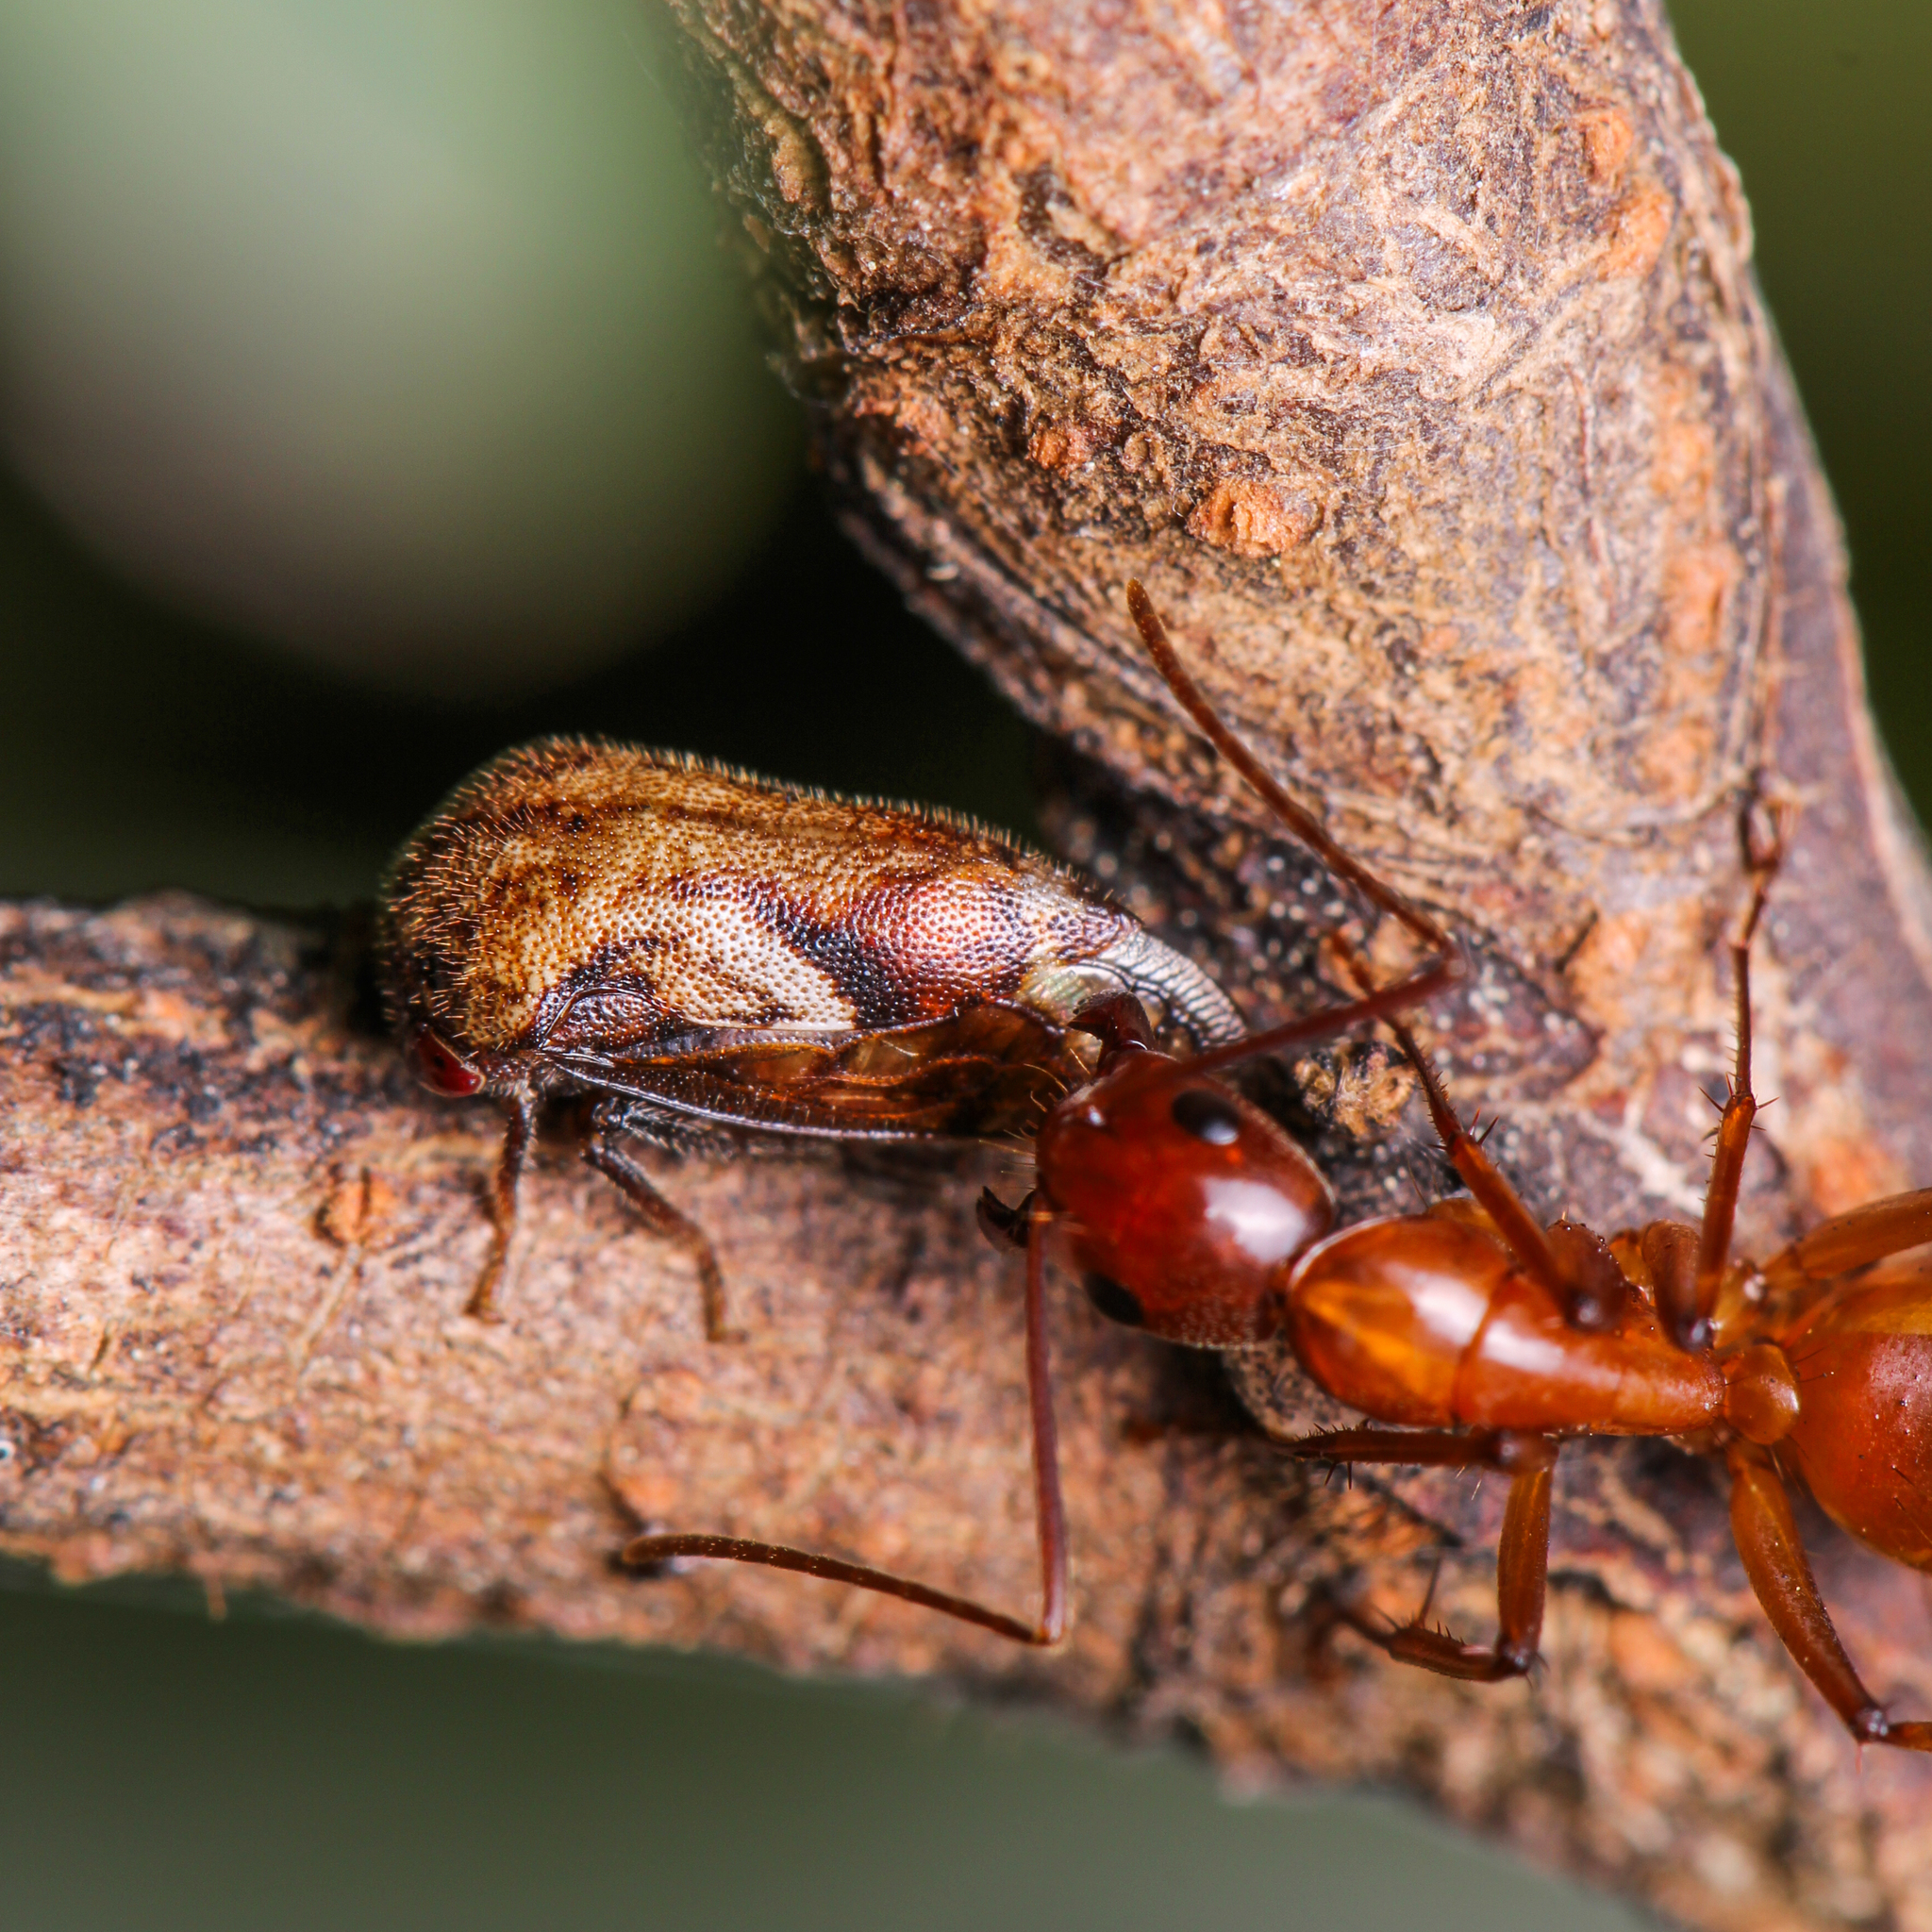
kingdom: Animalia
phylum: Arthropoda
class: Insecta
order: Hemiptera
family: Membracidae
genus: Vanduzea
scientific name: Vanduzea arquata
